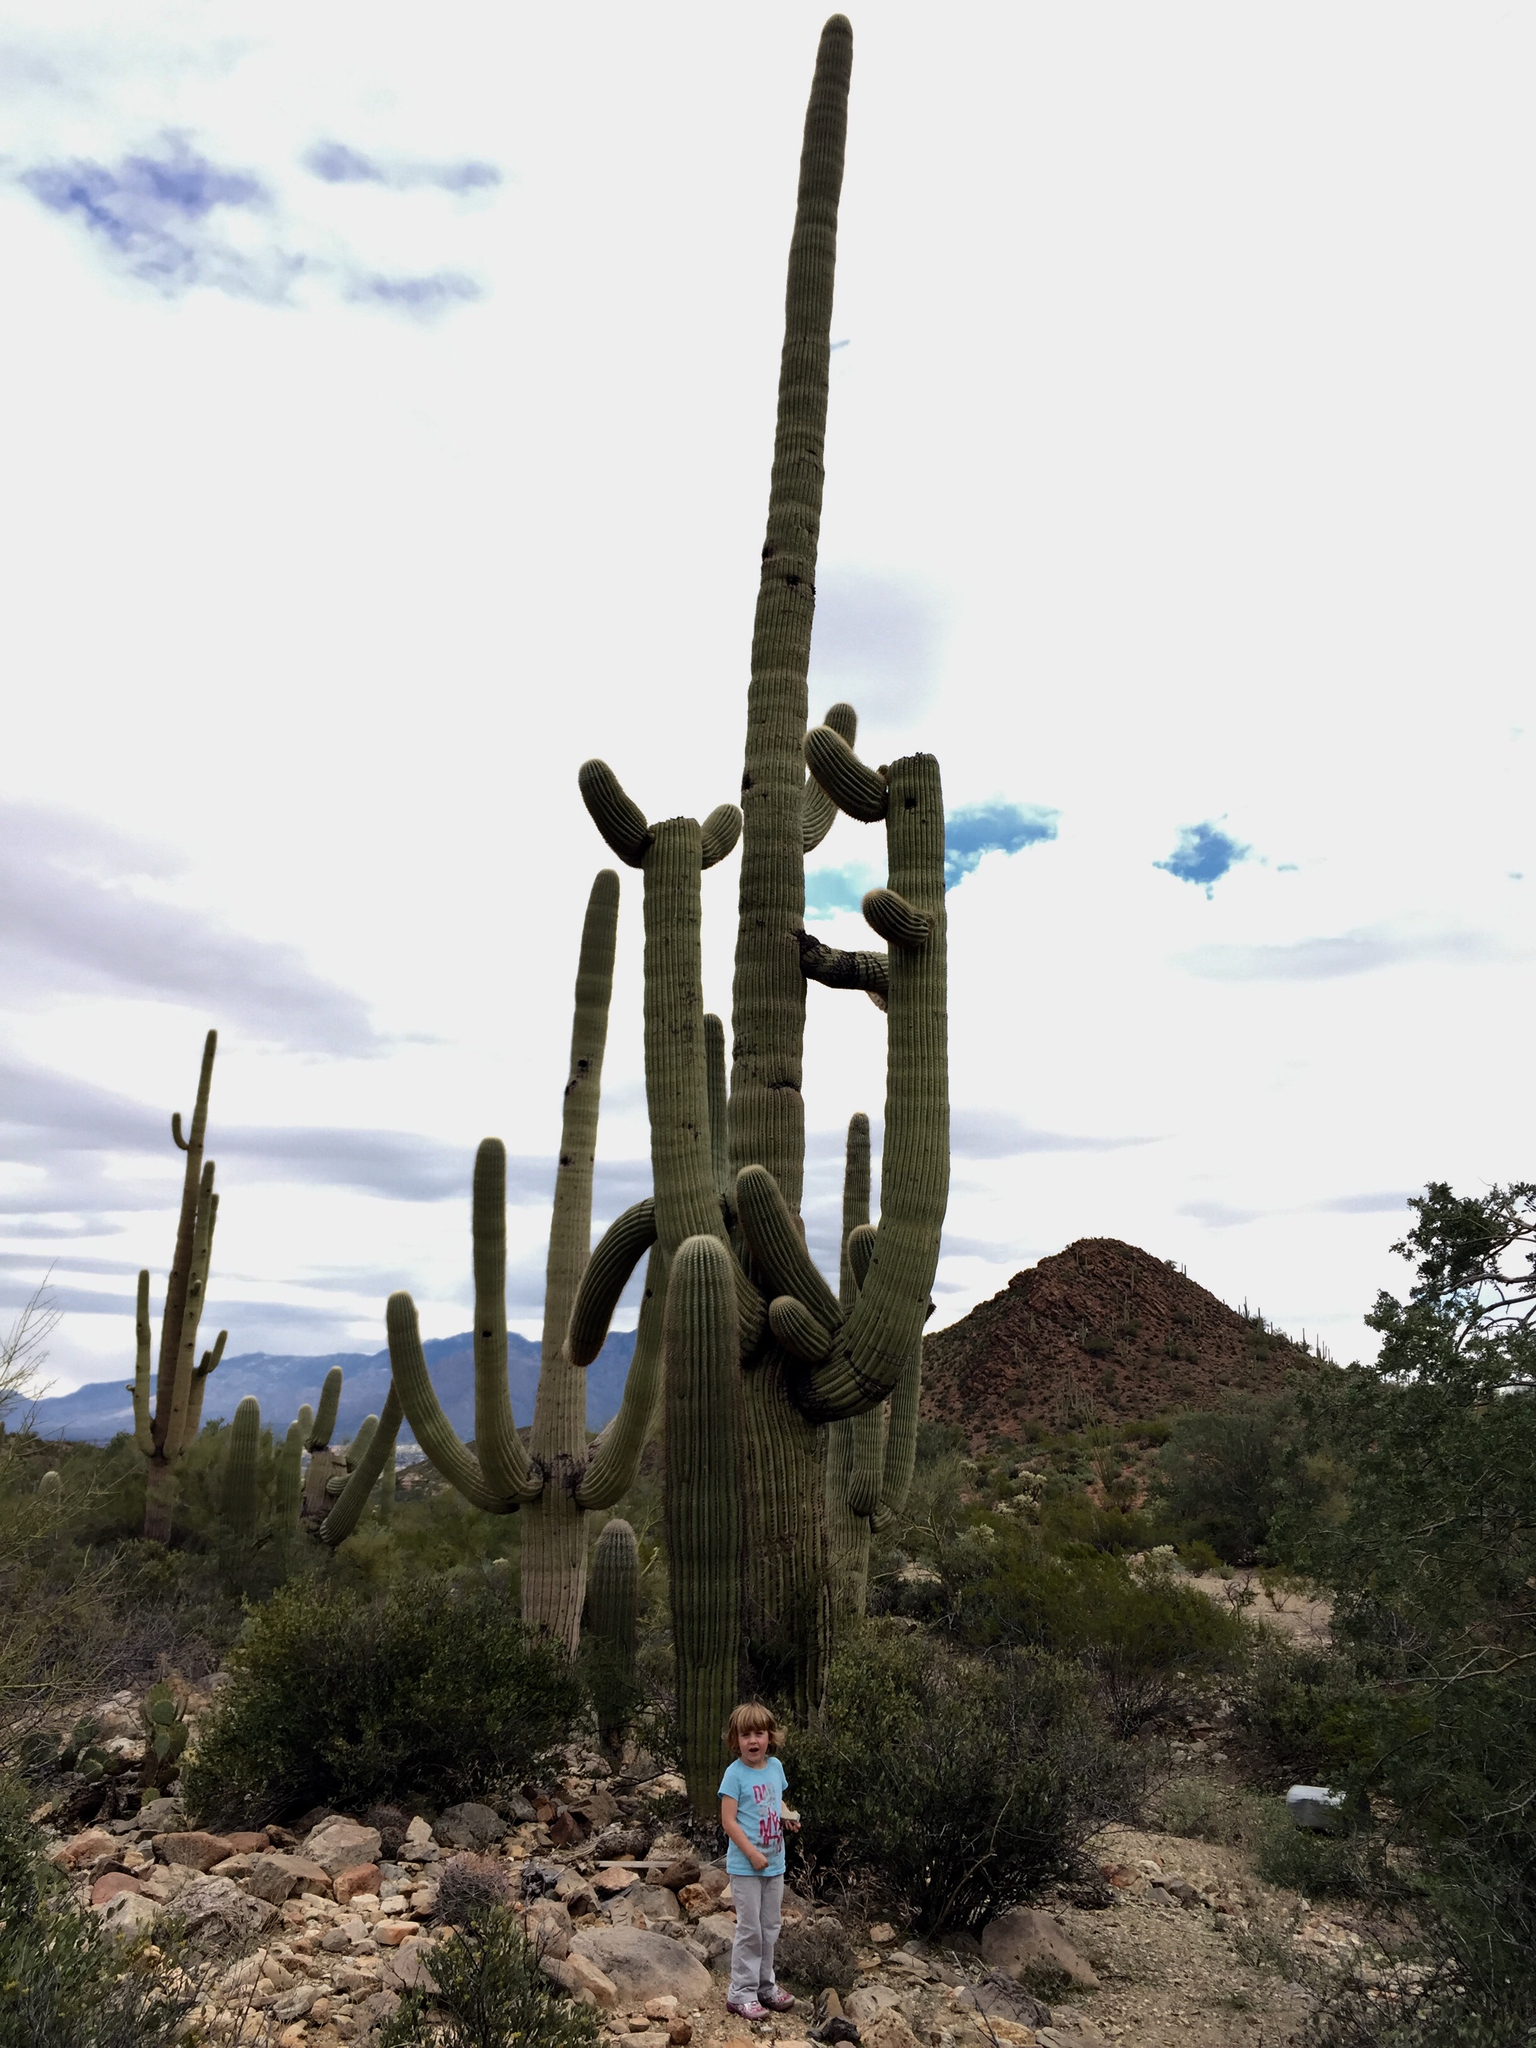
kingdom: Plantae
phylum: Tracheophyta
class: Magnoliopsida
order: Caryophyllales
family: Cactaceae
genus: Carnegiea
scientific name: Carnegiea gigantea
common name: Saguaro
